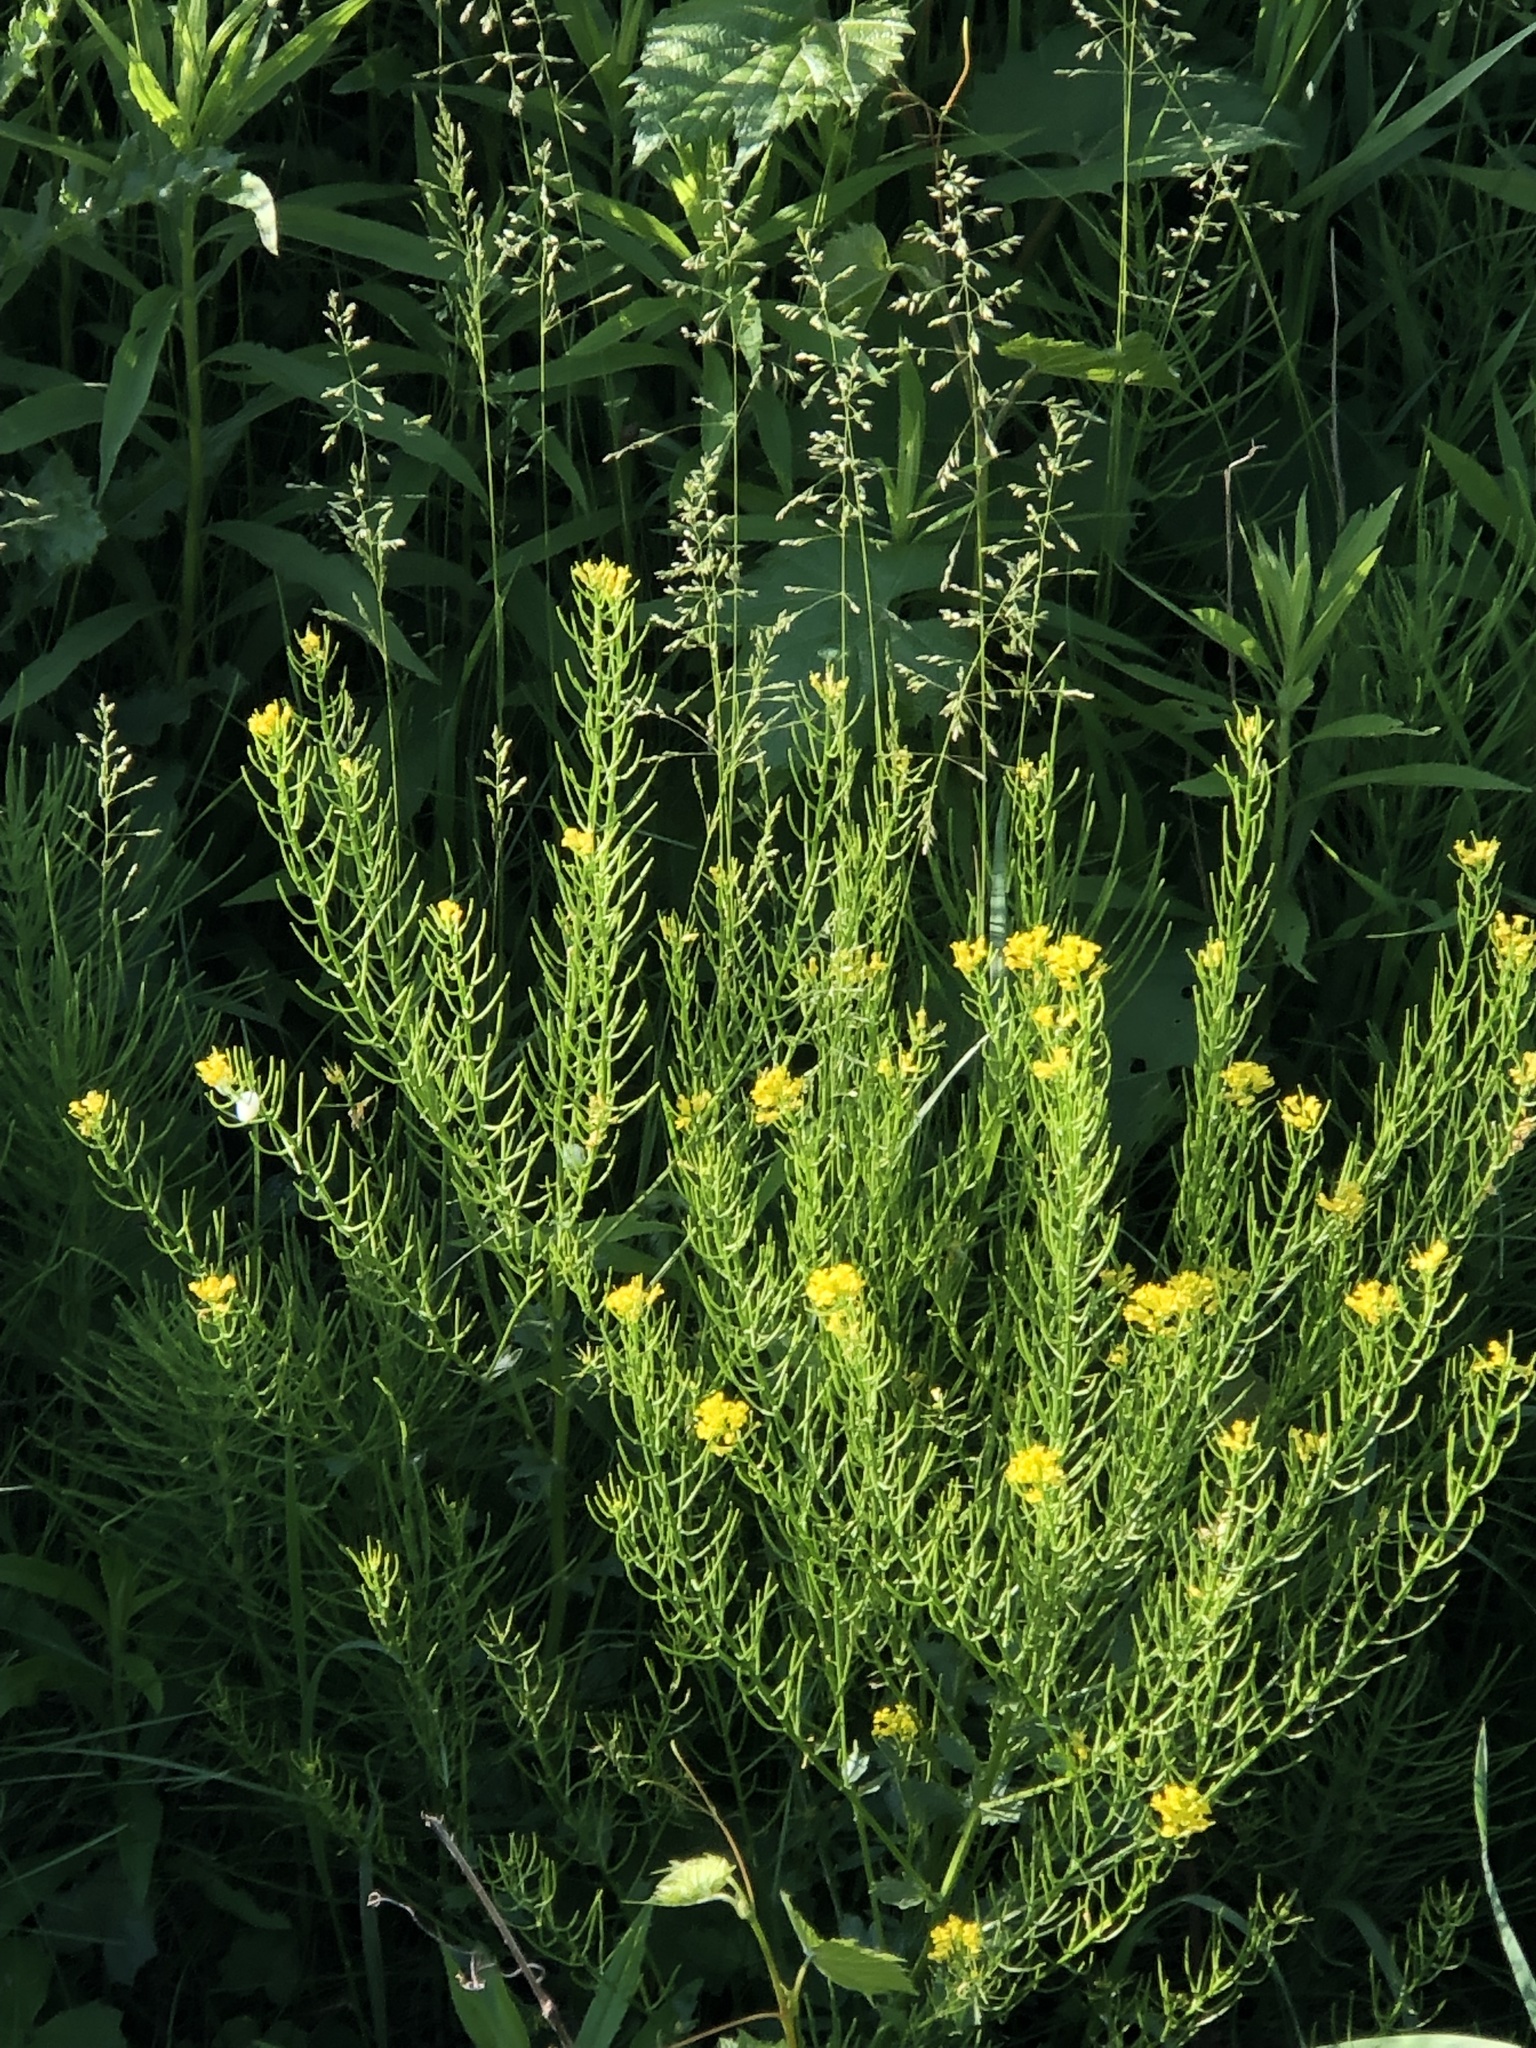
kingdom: Plantae
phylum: Tracheophyta
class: Magnoliopsida
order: Brassicales
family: Brassicaceae
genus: Barbarea
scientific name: Barbarea vulgaris
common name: Cressy-greens
